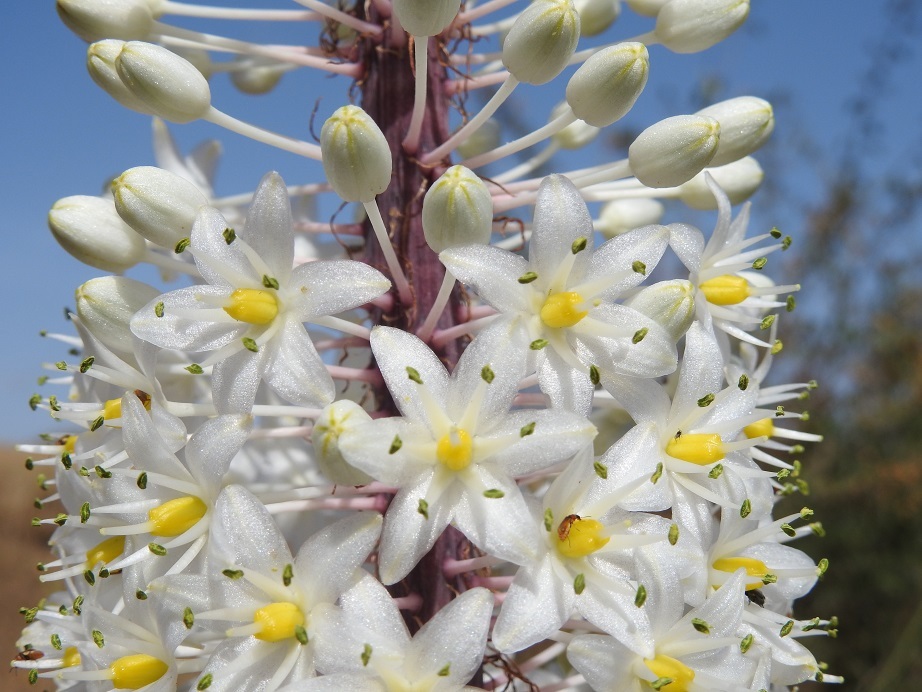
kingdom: Plantae
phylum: Tracheophyta
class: Liliopsida
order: Asparagales
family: Asparagaceae
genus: Drimia
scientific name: Drimia numidica
